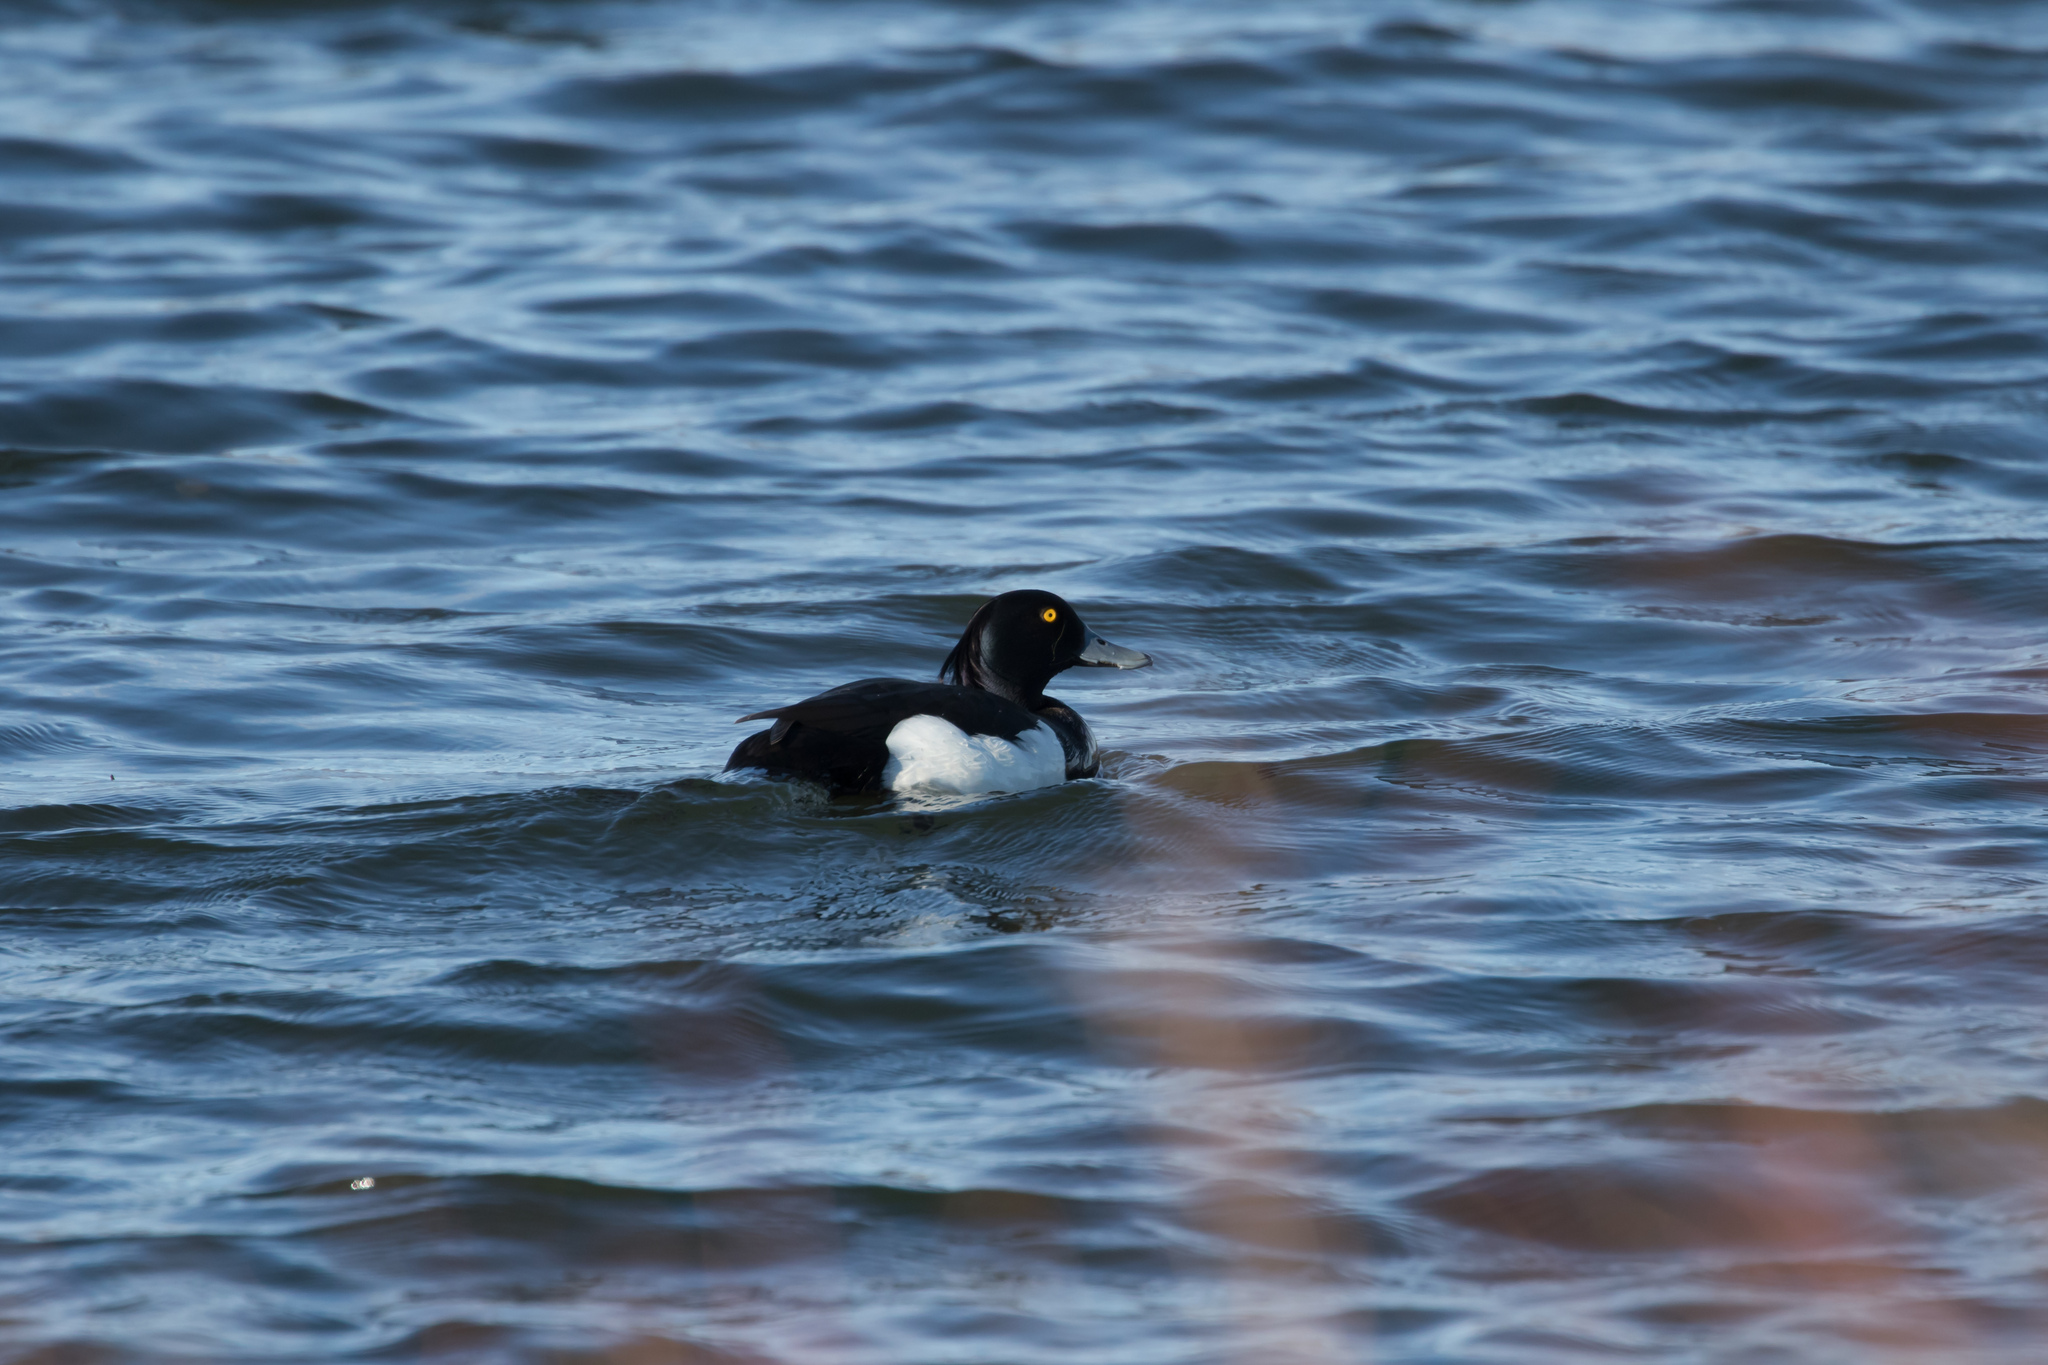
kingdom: Animalia
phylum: Chordata
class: Aves
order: Anseriformes
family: Anatidae
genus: Aythya
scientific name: Aythya fuligula
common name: Tufted duck
